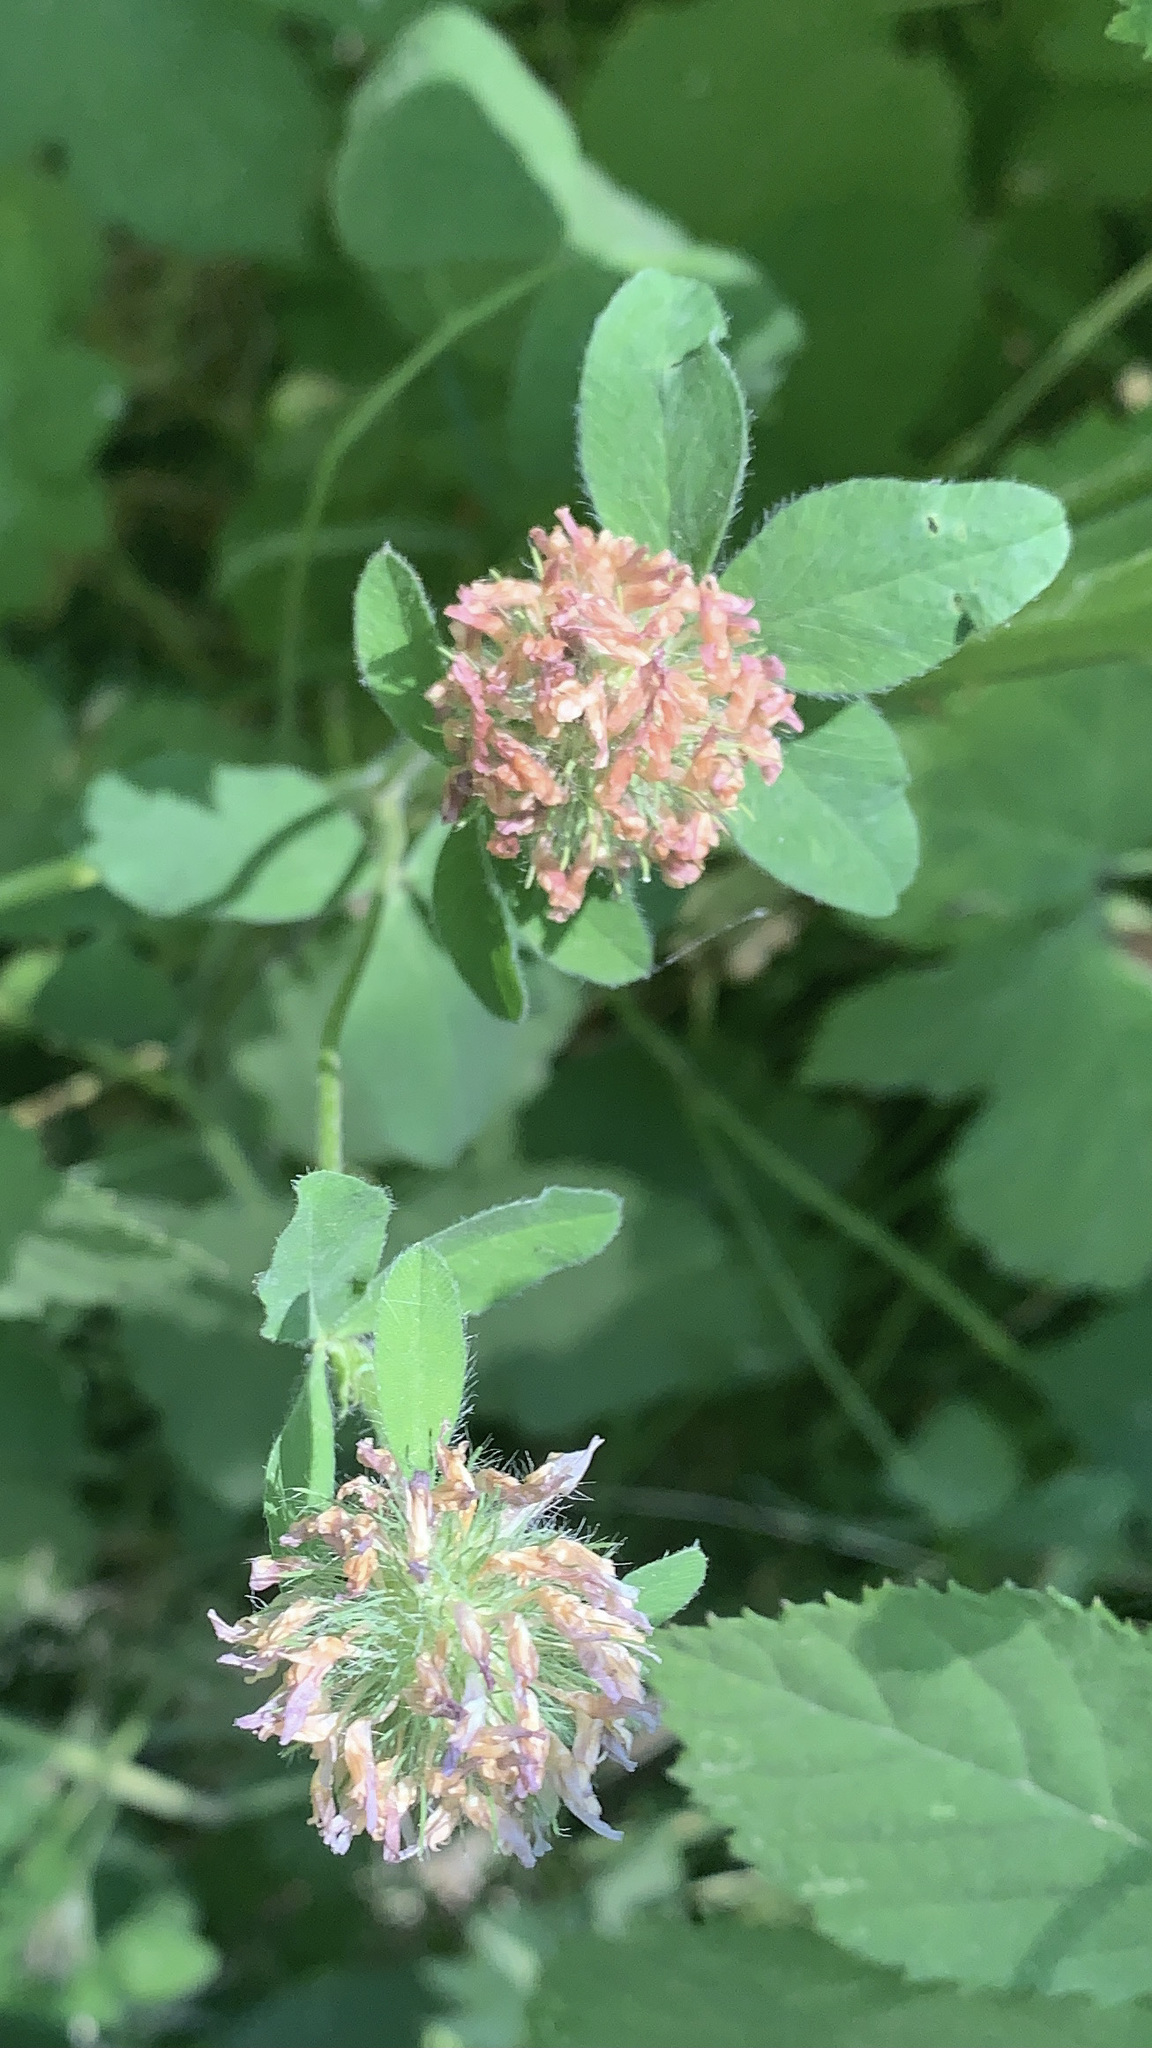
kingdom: Plantae
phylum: Tracheophyta
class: Magnoliopsida
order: Fabales
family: Fabaceae
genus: Trifolium
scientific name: Trifolium pratense
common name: Red clover
